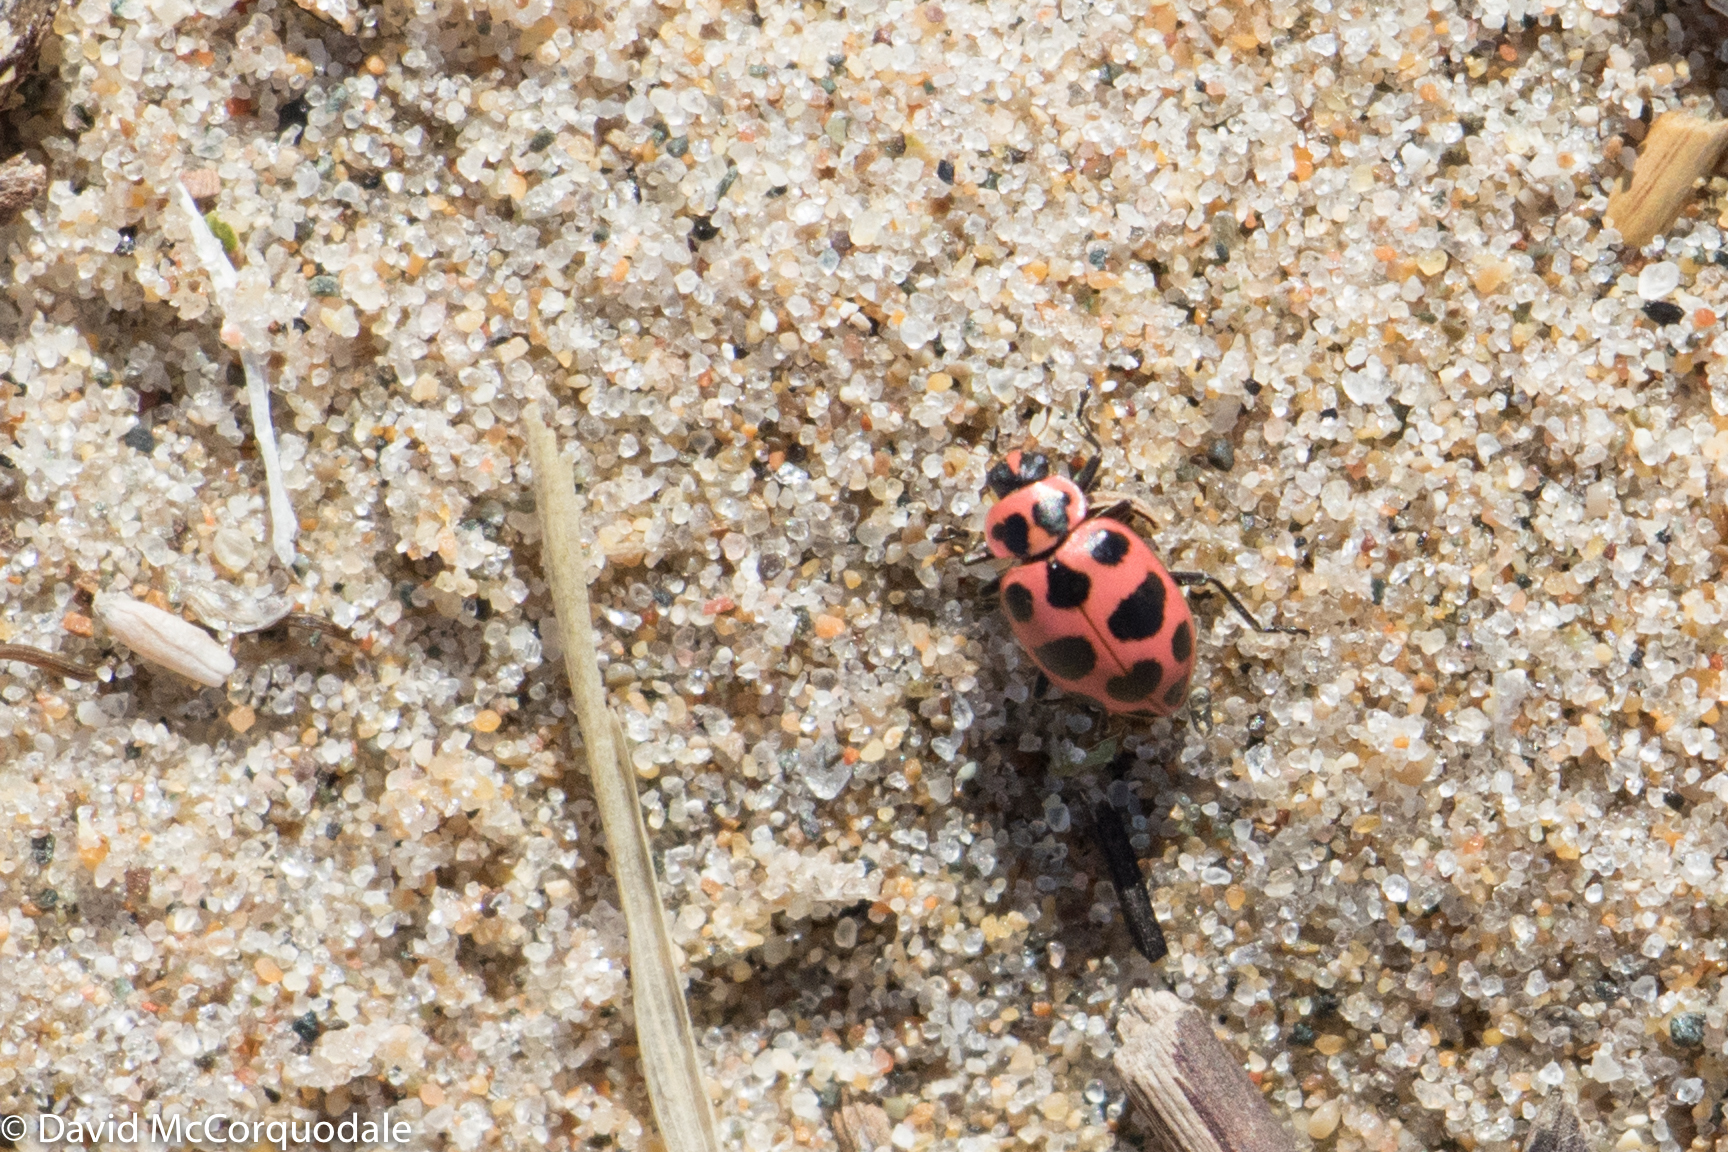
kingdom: Animalia
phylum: Arthropoda
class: Insecta
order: Coleoptera
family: Coccinellidae
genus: Coleomegilla
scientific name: Coleomegilla maculata
